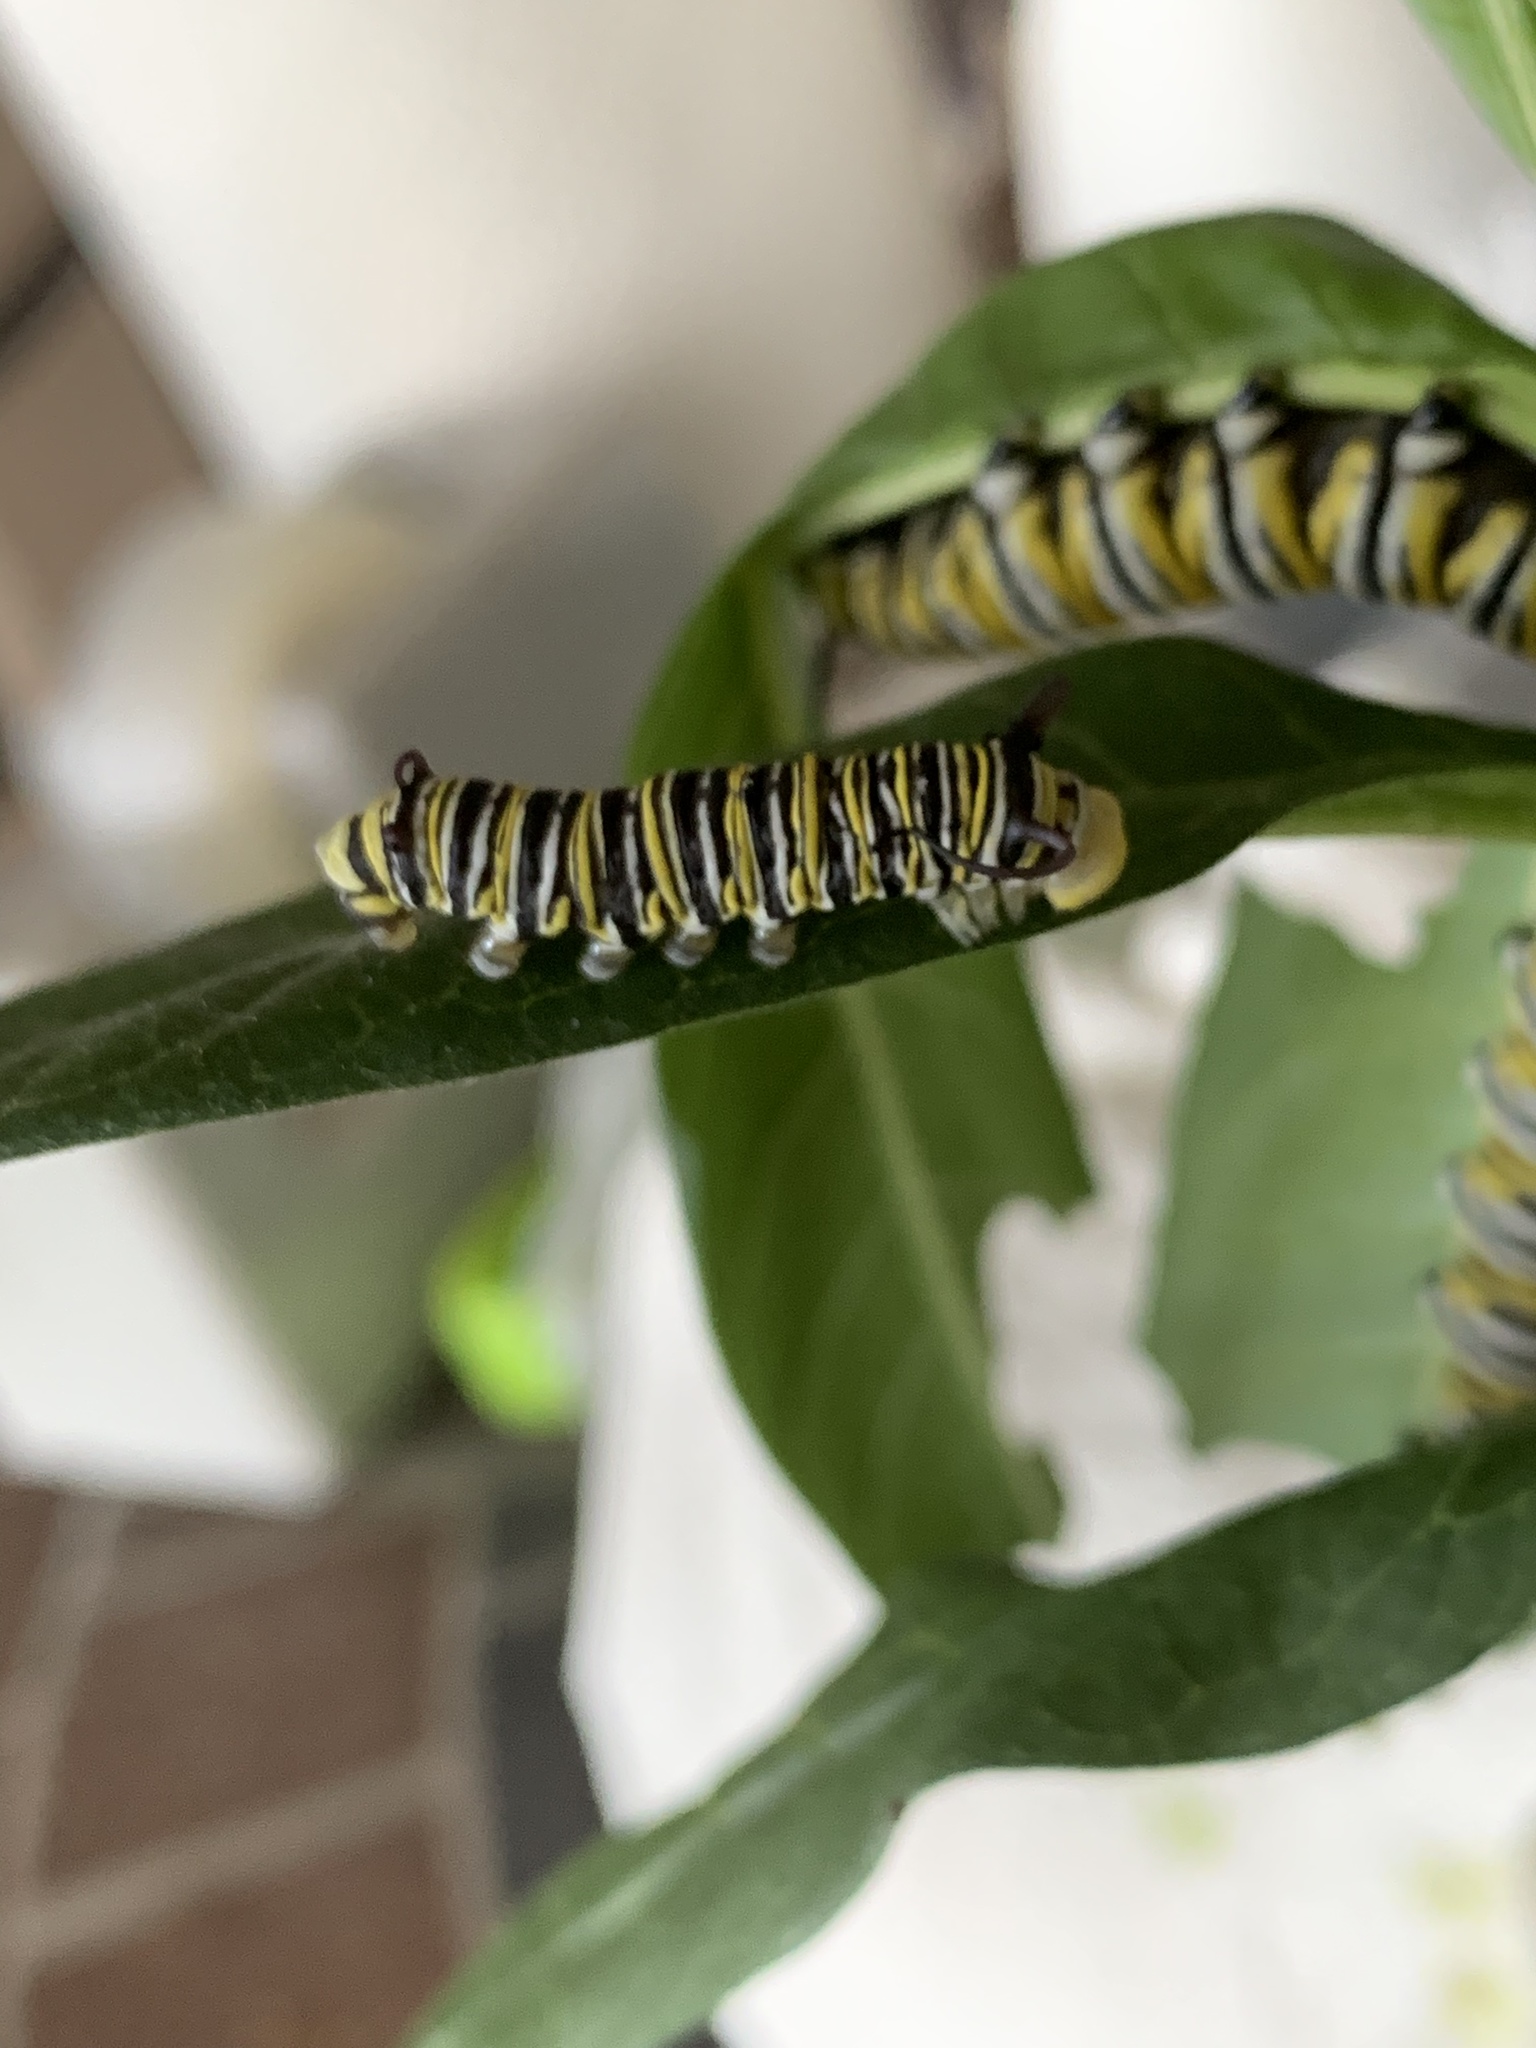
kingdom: Animalia
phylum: Arthropoda
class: Insecta
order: Lepidoptera
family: Nymphalidae
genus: Danaus
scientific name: Danaus plexippus
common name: Monarch
